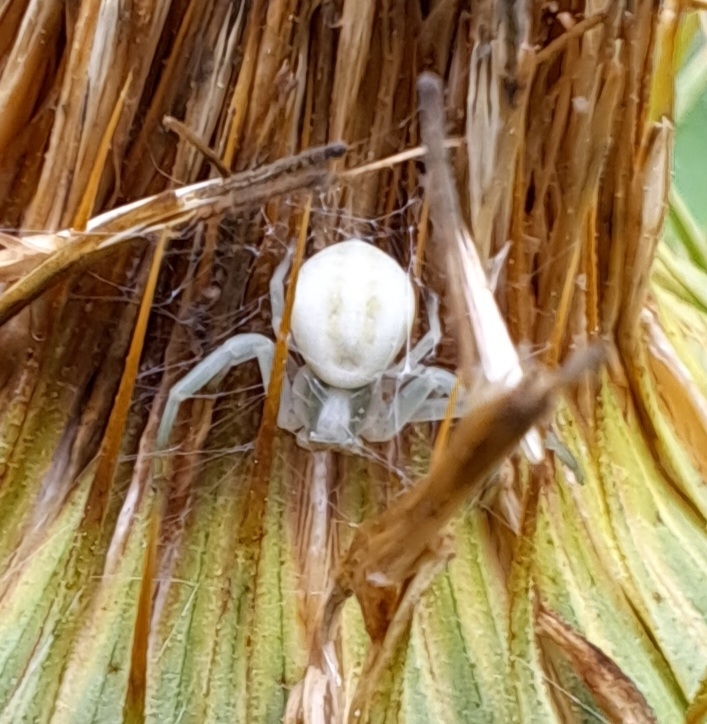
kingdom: Animalia
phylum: Arthropoda
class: Arachnida
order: Araneae
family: Thomisidae
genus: Misumena
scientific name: Misumena vatia
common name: Goldenrod crab spider
